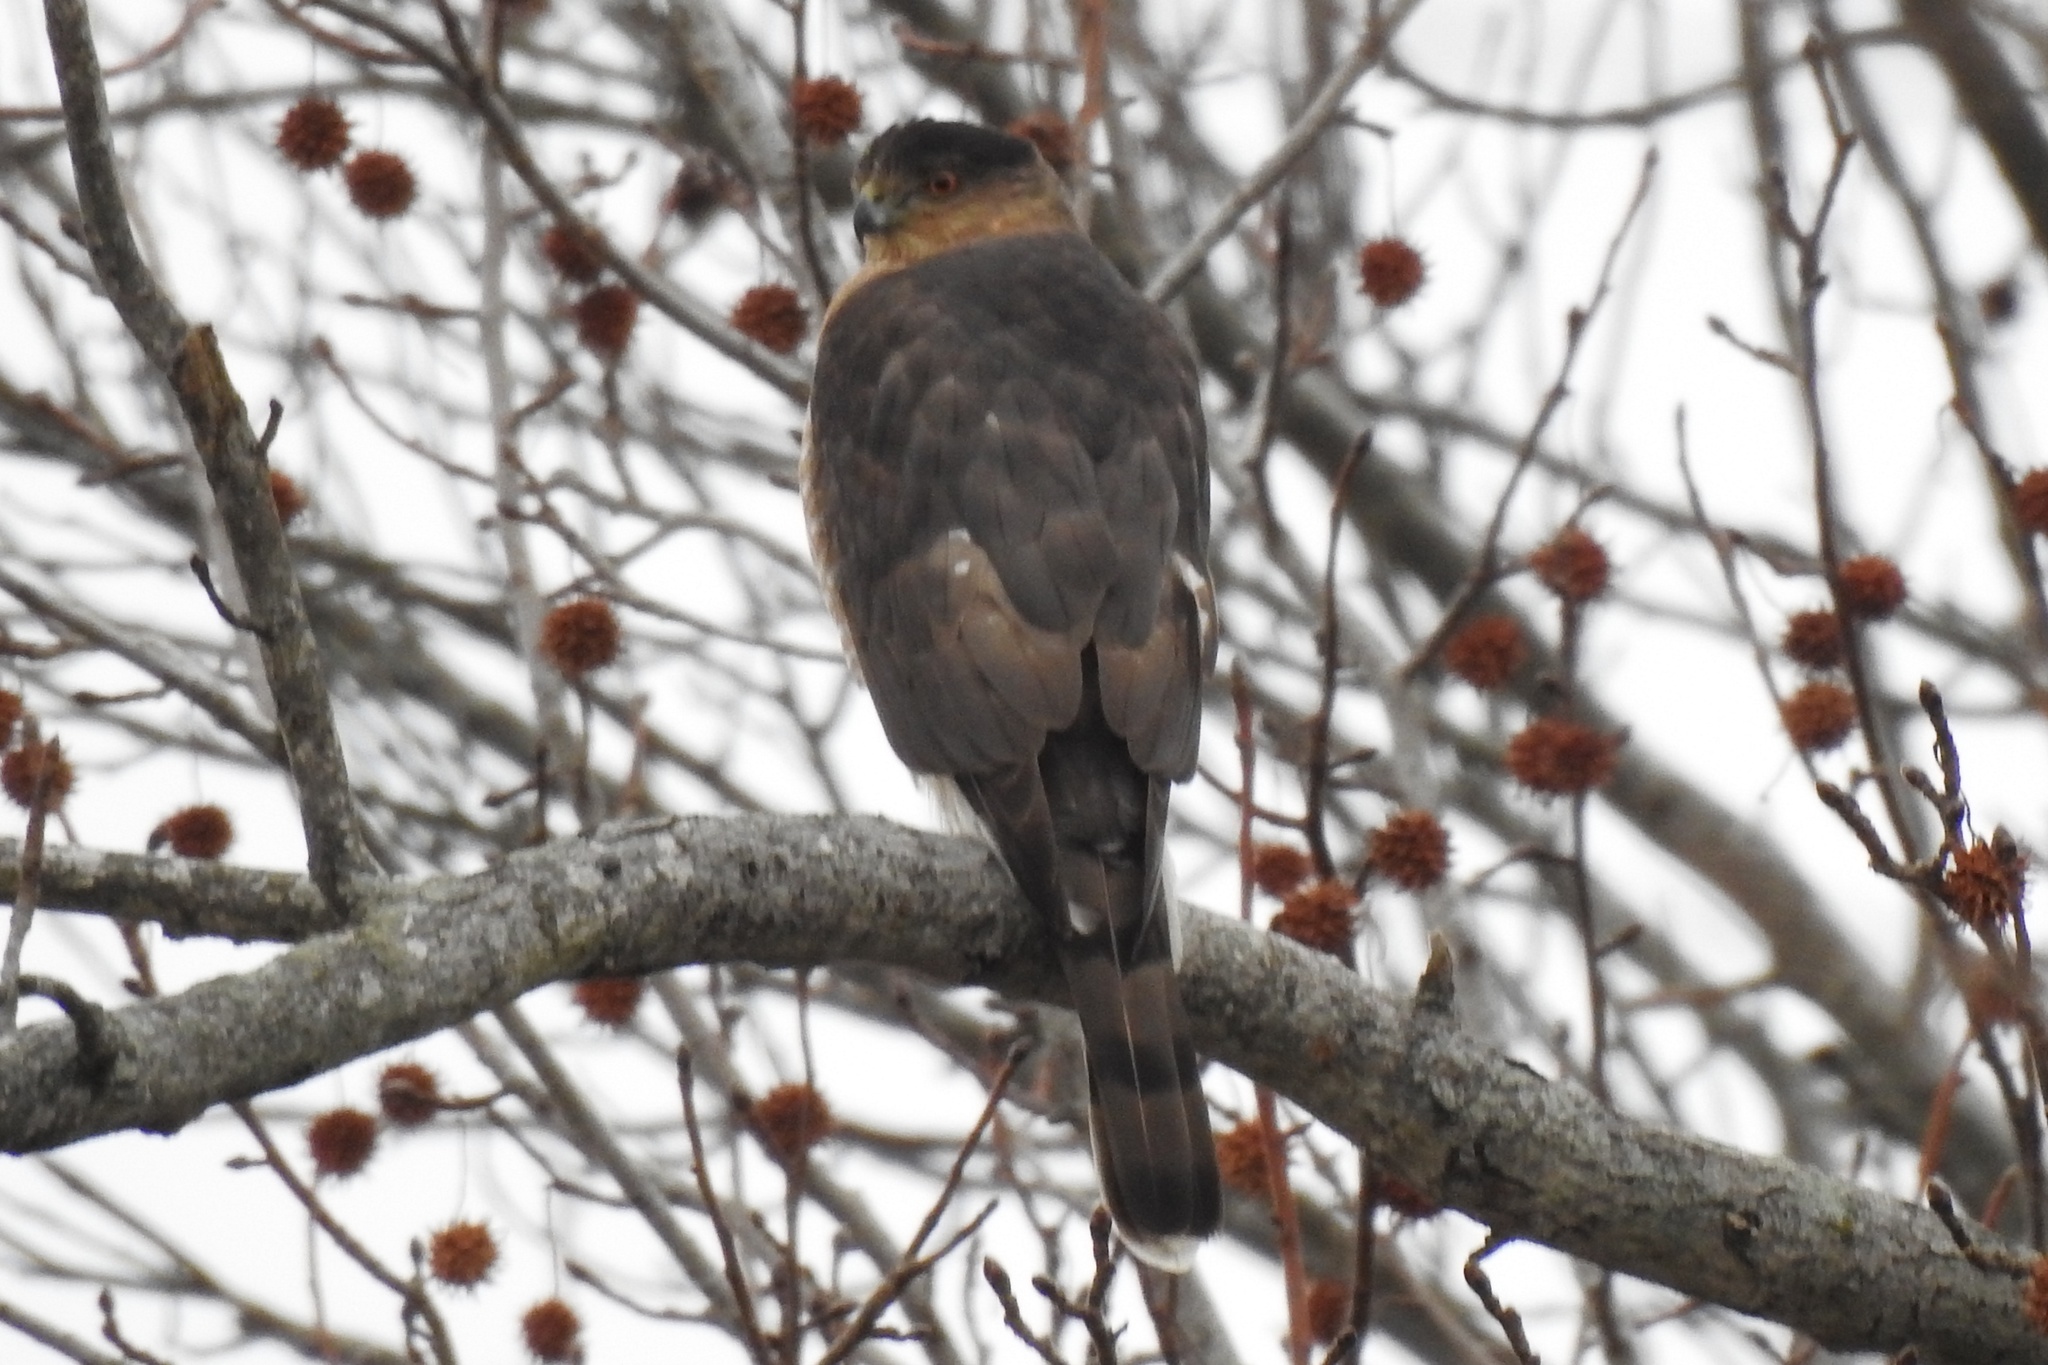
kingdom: Animalia
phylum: Chordata
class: Aves
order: Accipitriformes
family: Accipitridae
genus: Accipiter
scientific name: Accipiter cooperii
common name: Cooper's hawk
